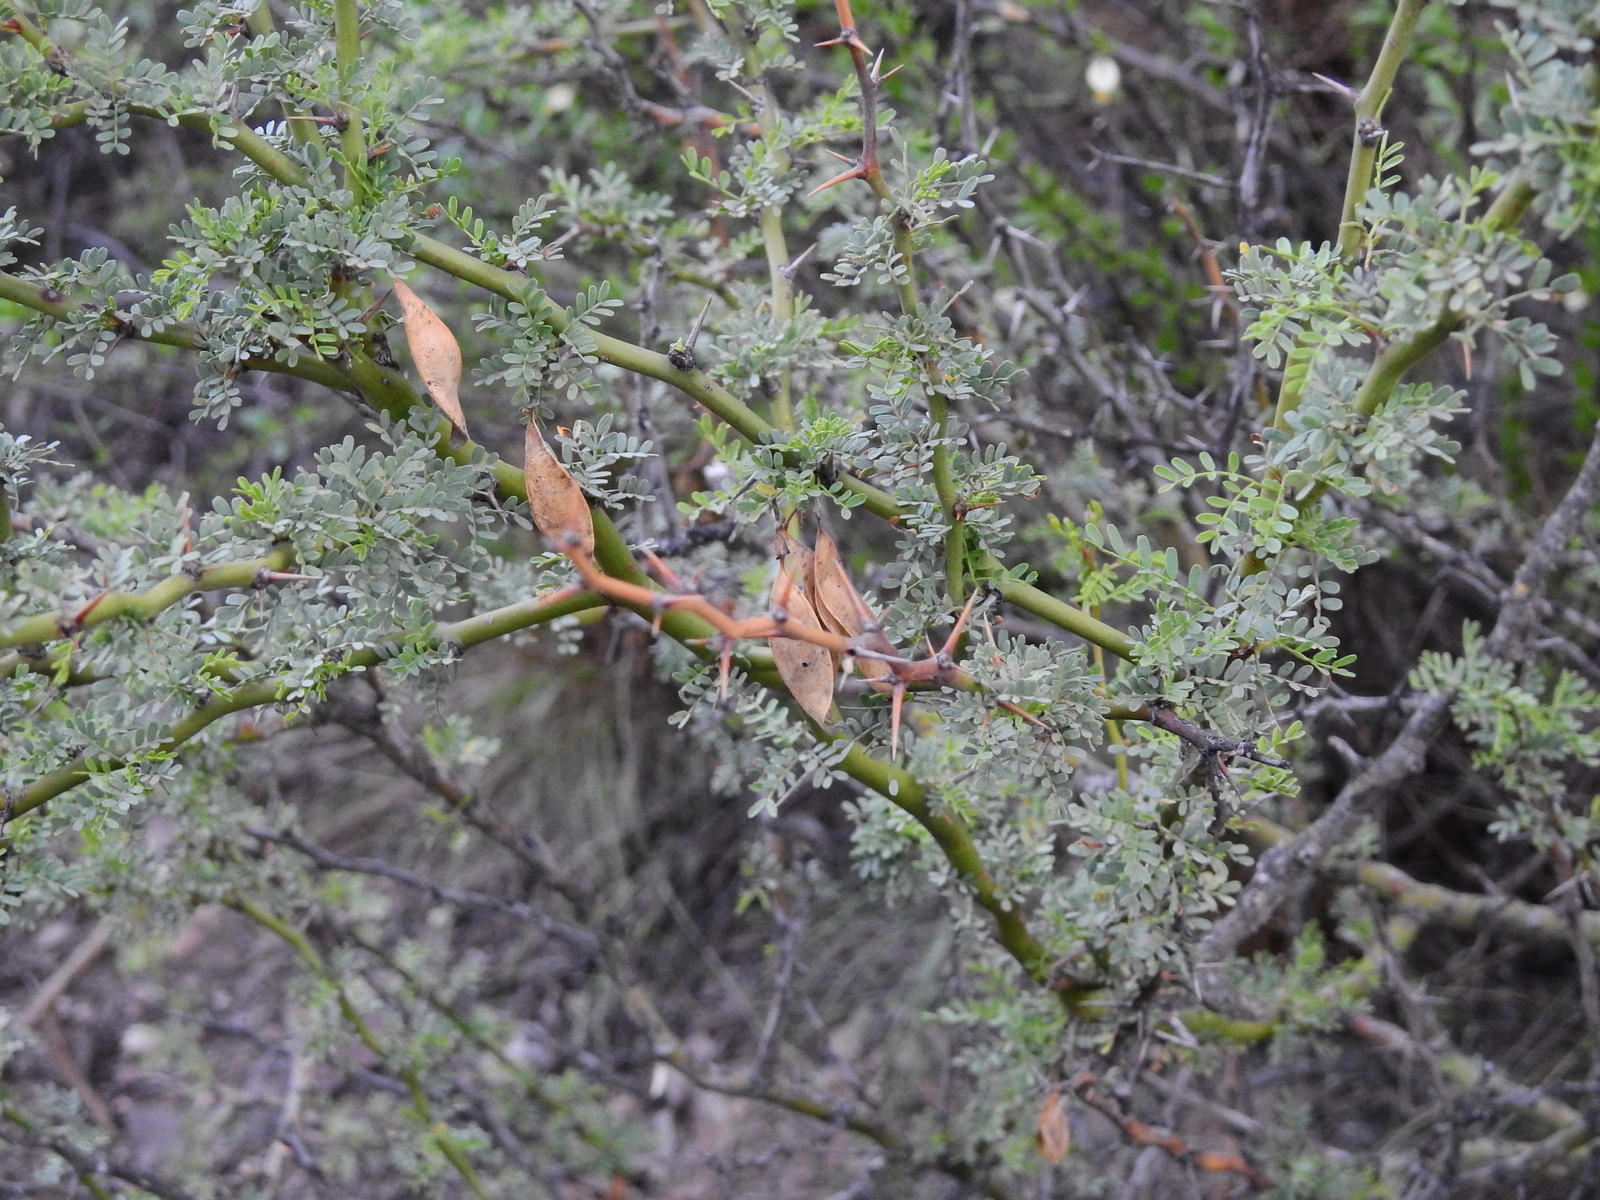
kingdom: Plantae
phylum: Tracheophyta
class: Magnoliopsida
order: Fabales
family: Fabaceae
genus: Parkinsonia
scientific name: Parkinsonia praecox
